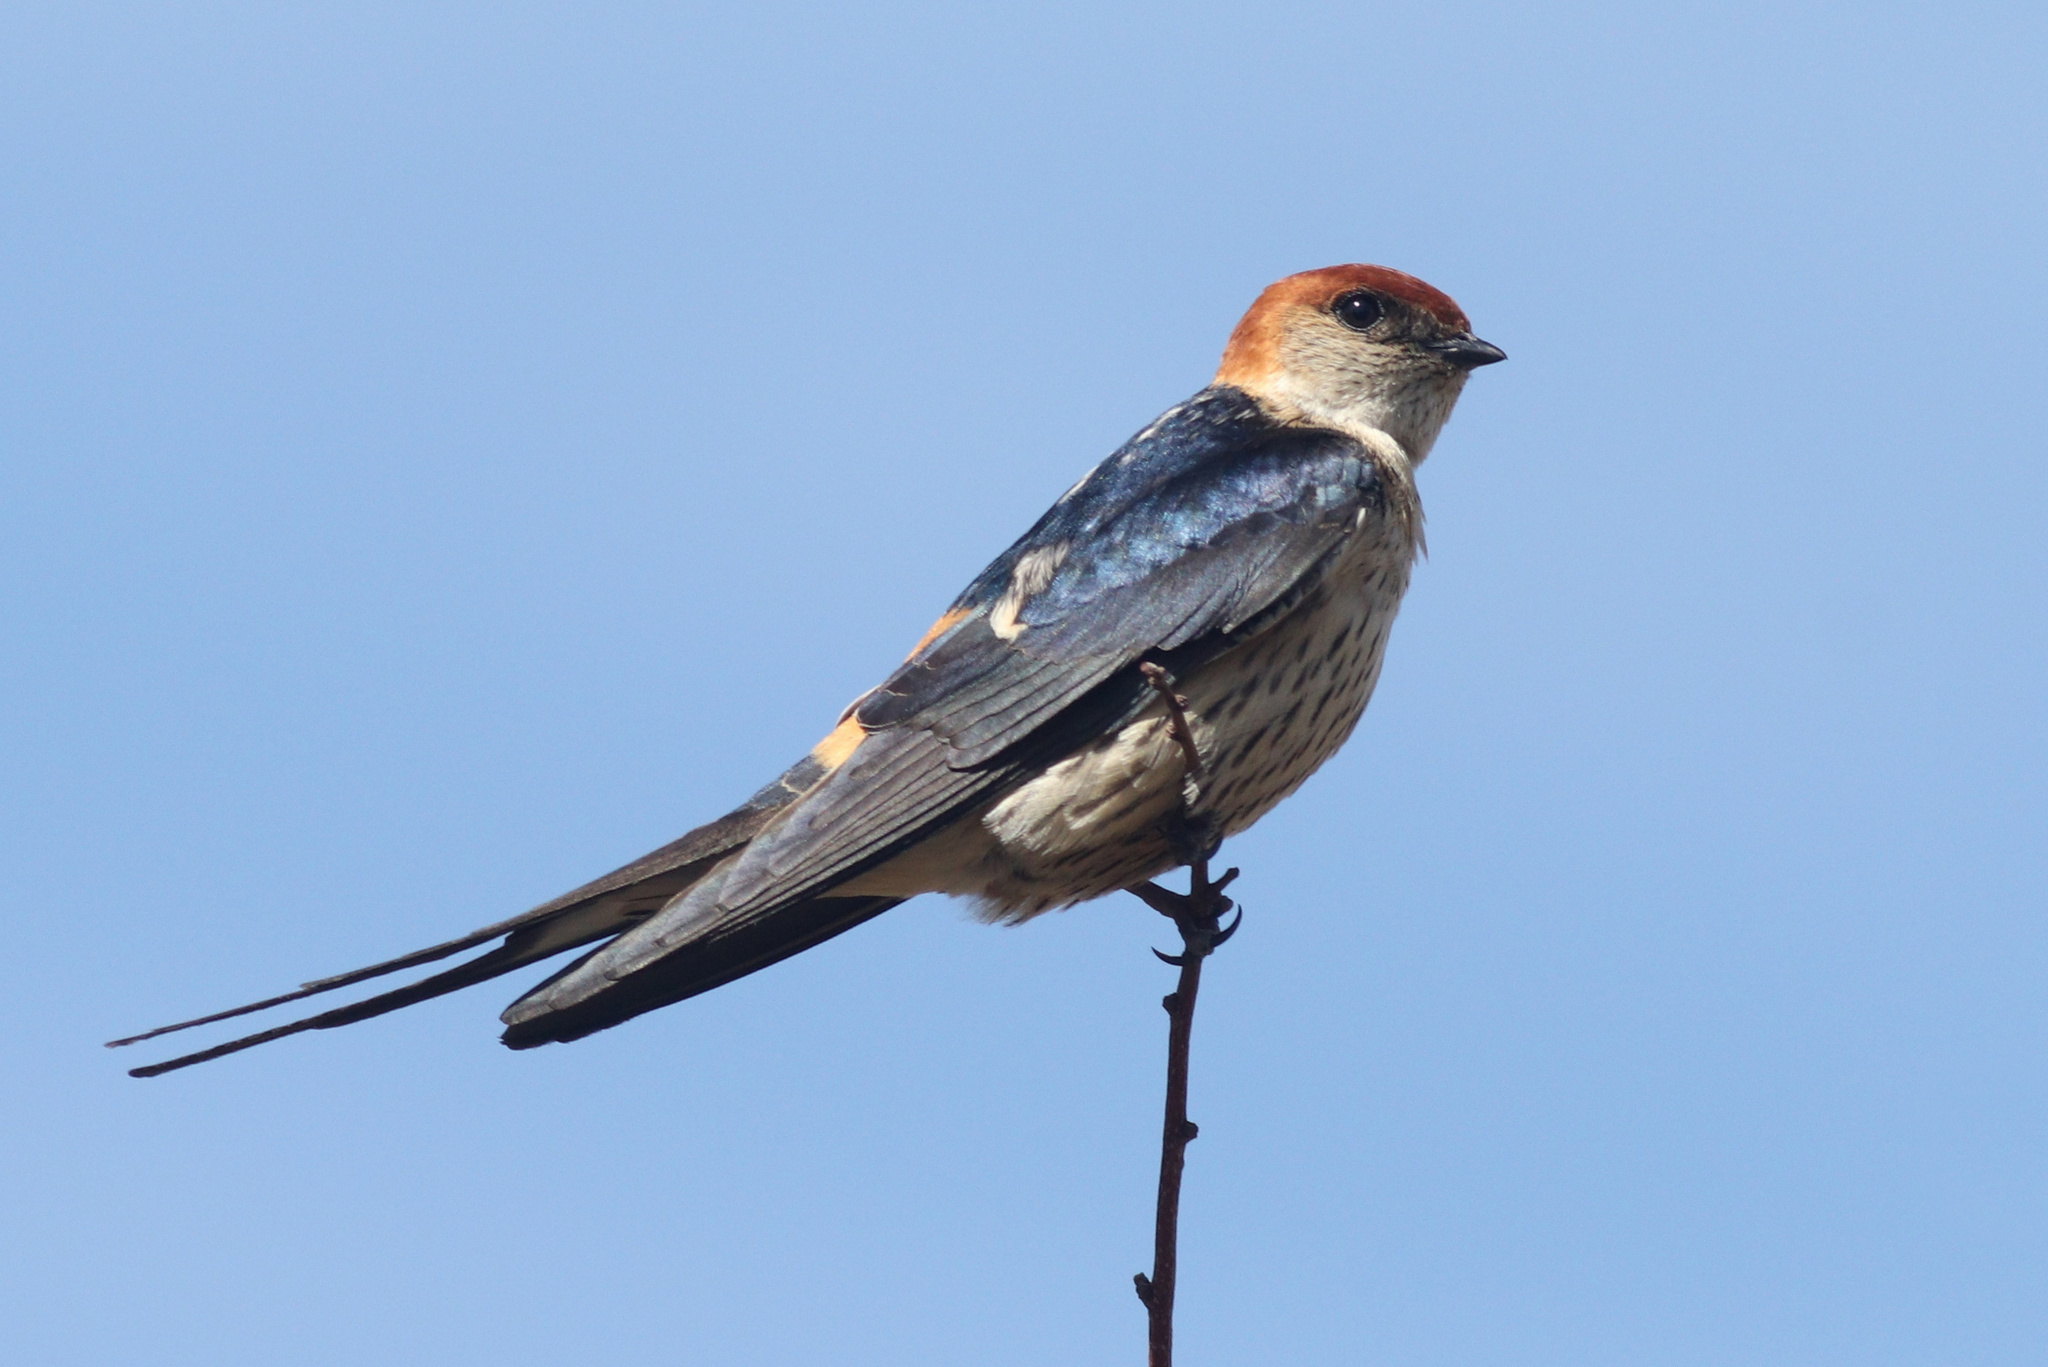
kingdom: Animalia
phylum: Chordata
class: Aves
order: Passeriformes
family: Hirundinidae
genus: Cecropis
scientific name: Cecropis cucullata
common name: Greater striped-swallow
